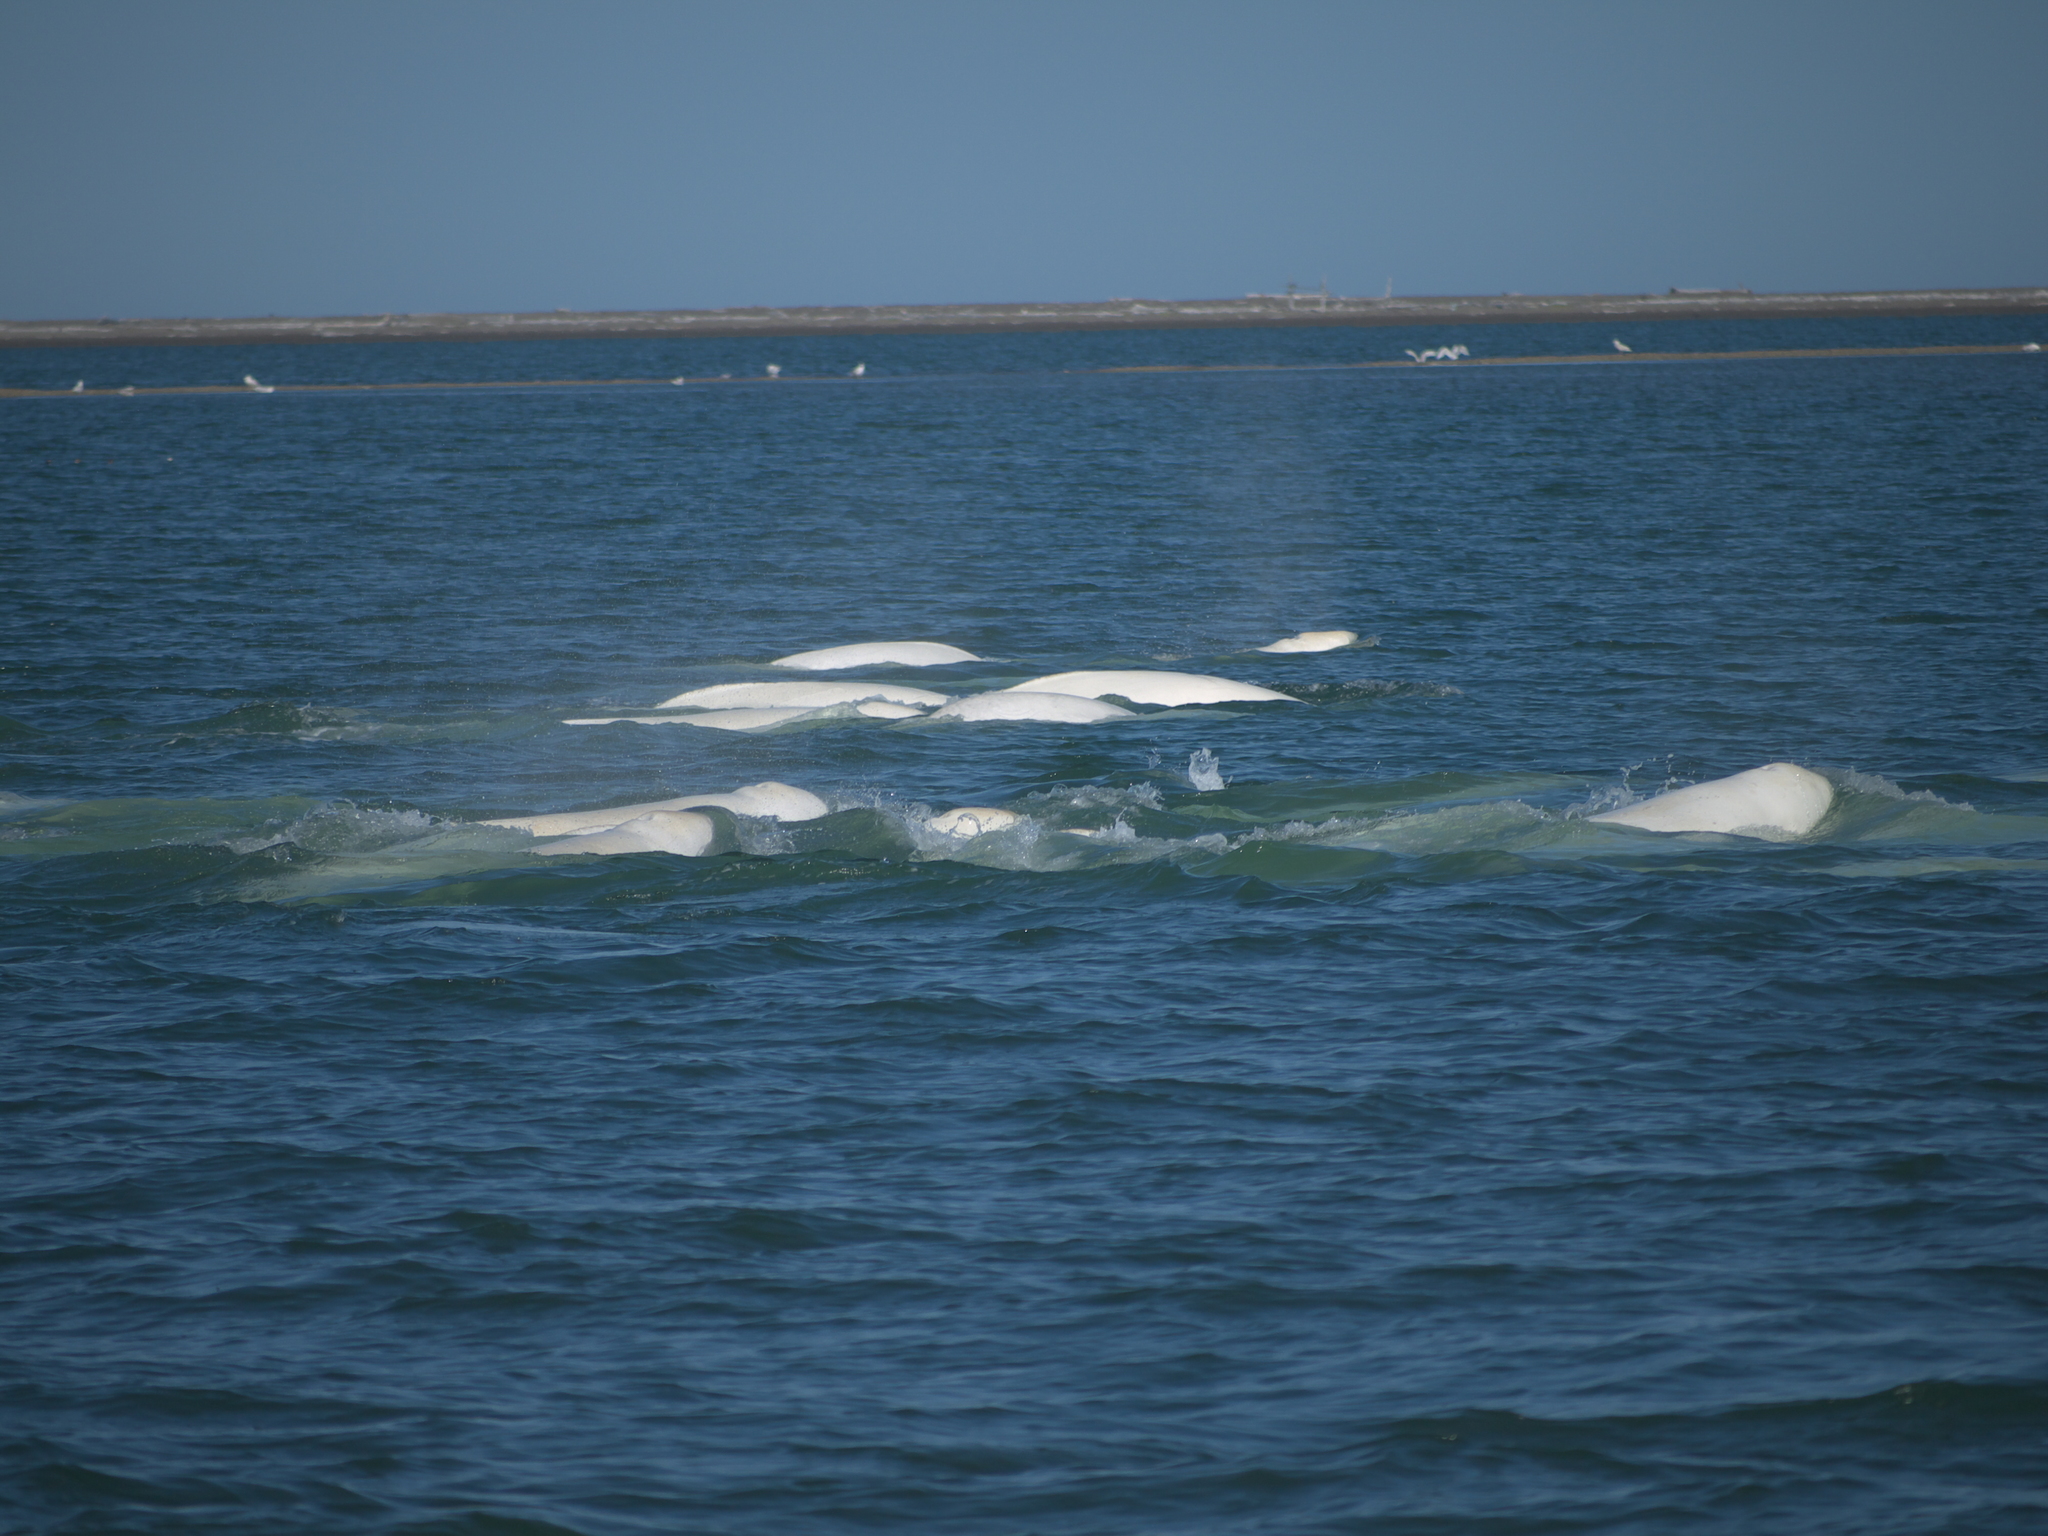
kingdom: Animalia
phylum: Chordata
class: Mammalia
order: Cetacea
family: Monodontidae
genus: Delphinapterus
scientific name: Delphinapterus leucas
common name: Beluga
